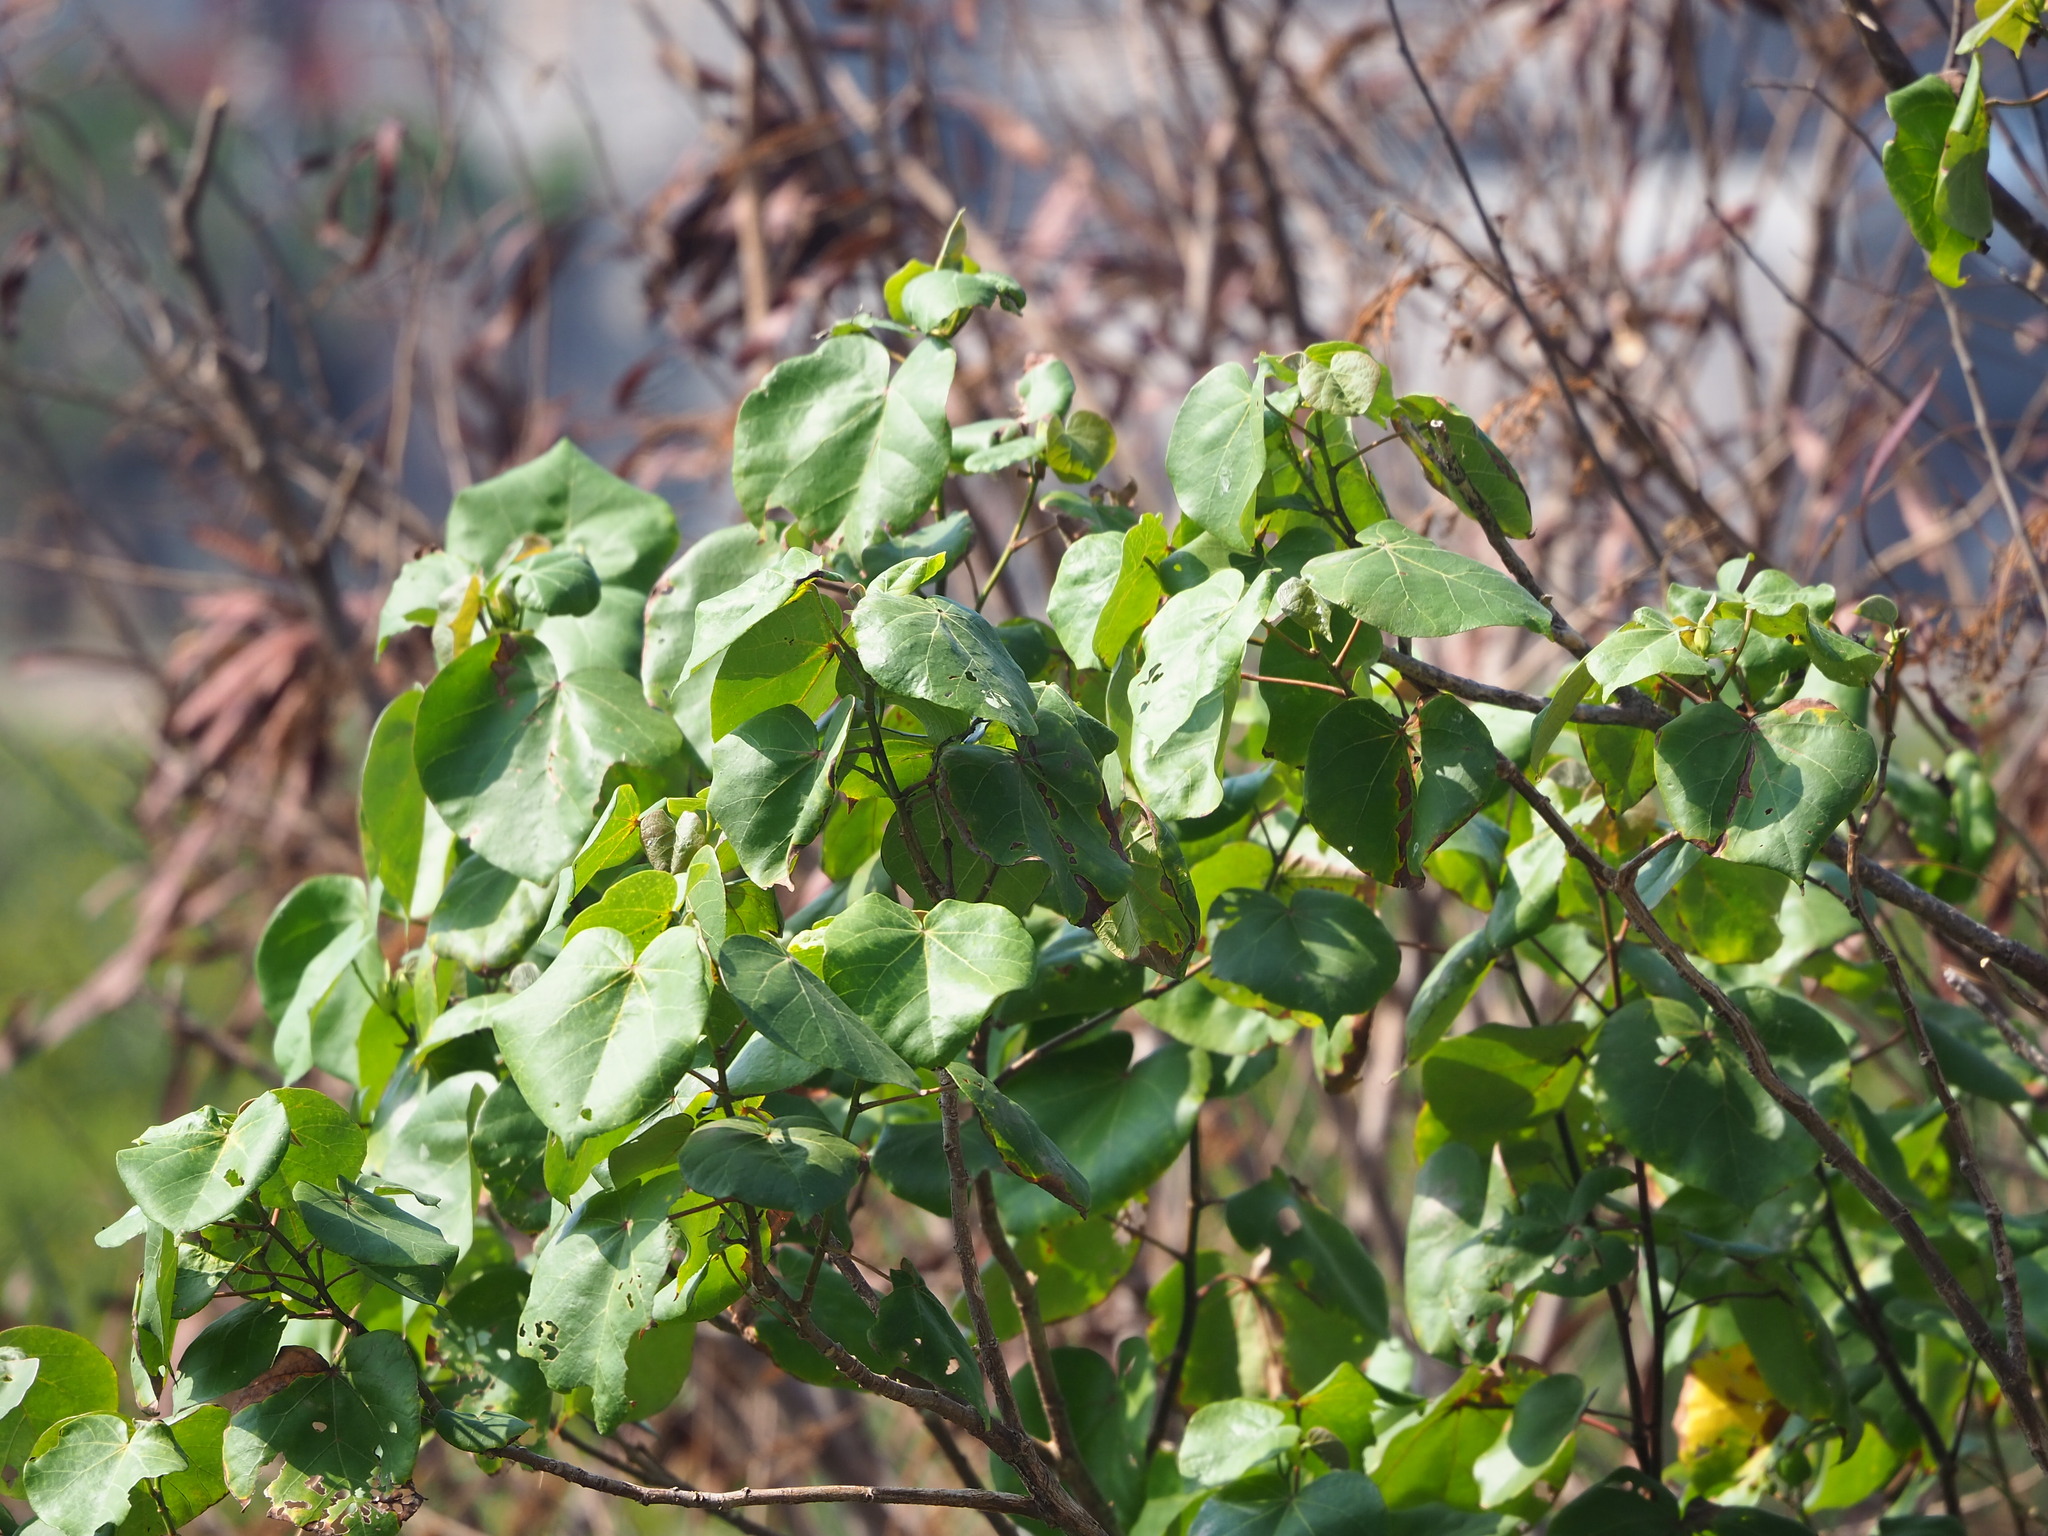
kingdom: Plantae
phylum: Tracheophyta
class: Magnoliopsida
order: Malvales
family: Malvaceae
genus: Talipariti
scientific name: Talipariti tiliaceum
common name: Sea hibiscus
